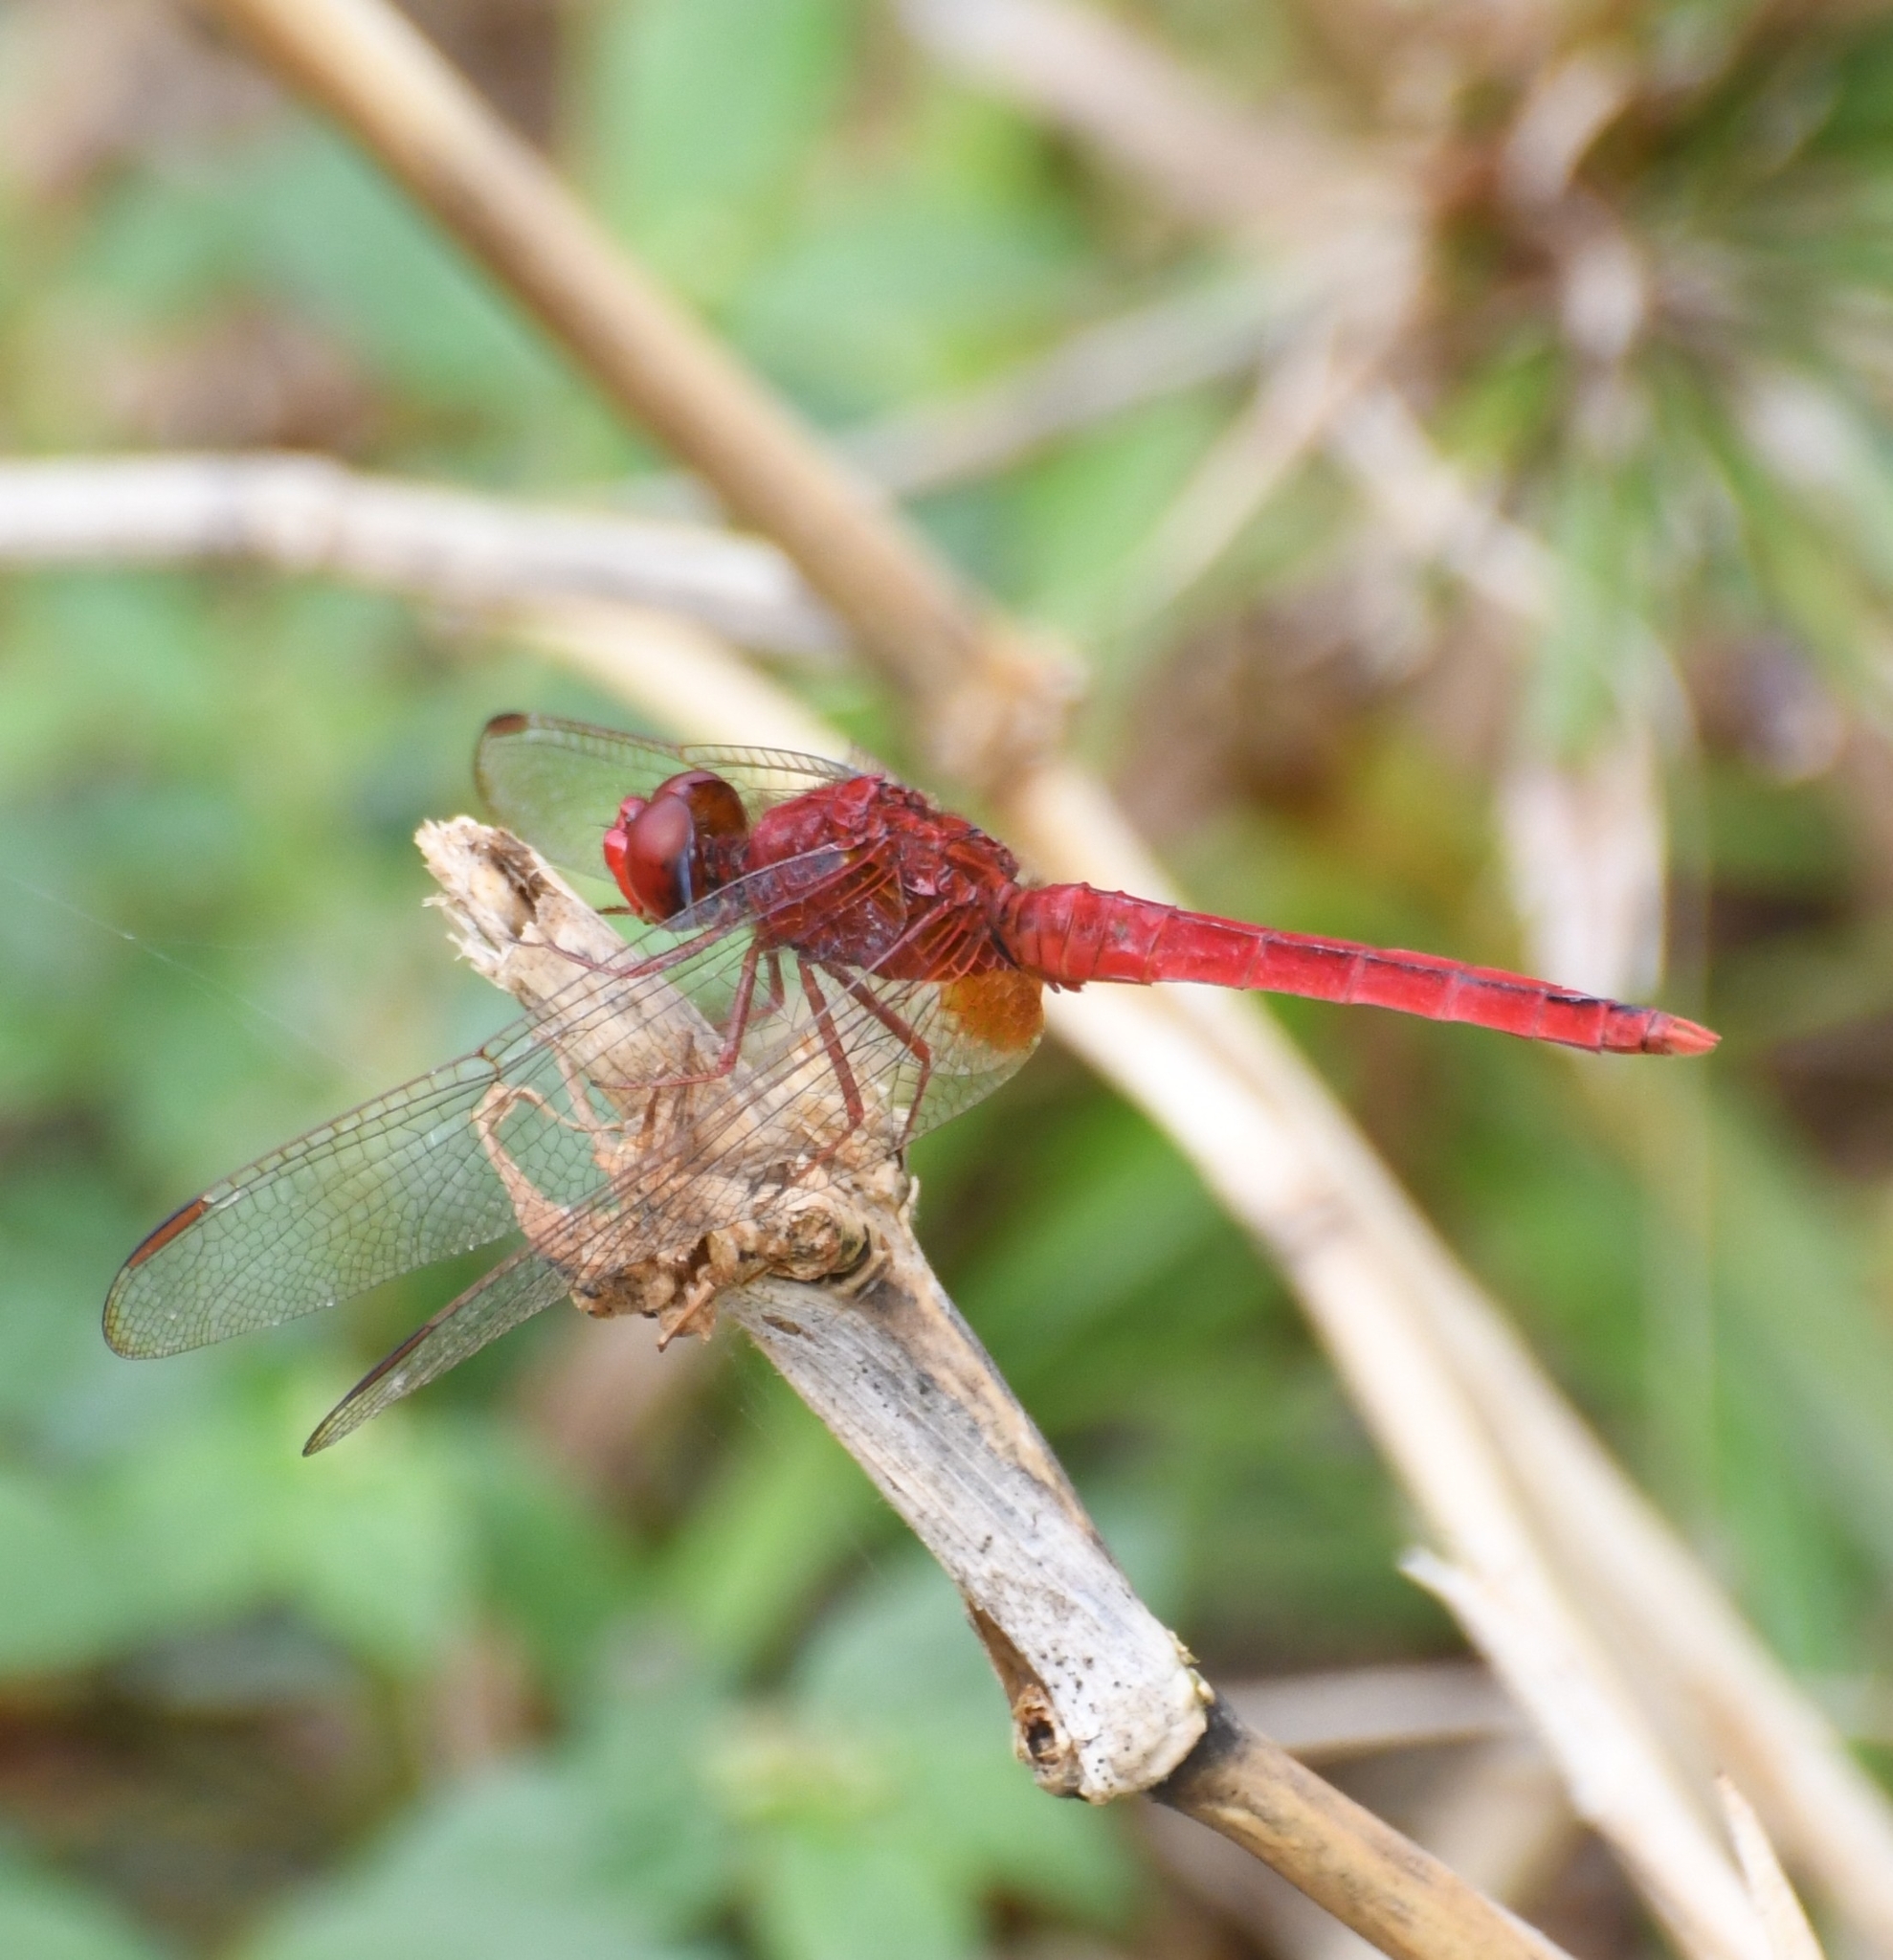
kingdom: Animalia
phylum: Arthropoda
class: Insecta
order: Odonata
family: Libellulidae
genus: Crocothemis
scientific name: Crocothemis servilia
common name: Scarlet skimmer
